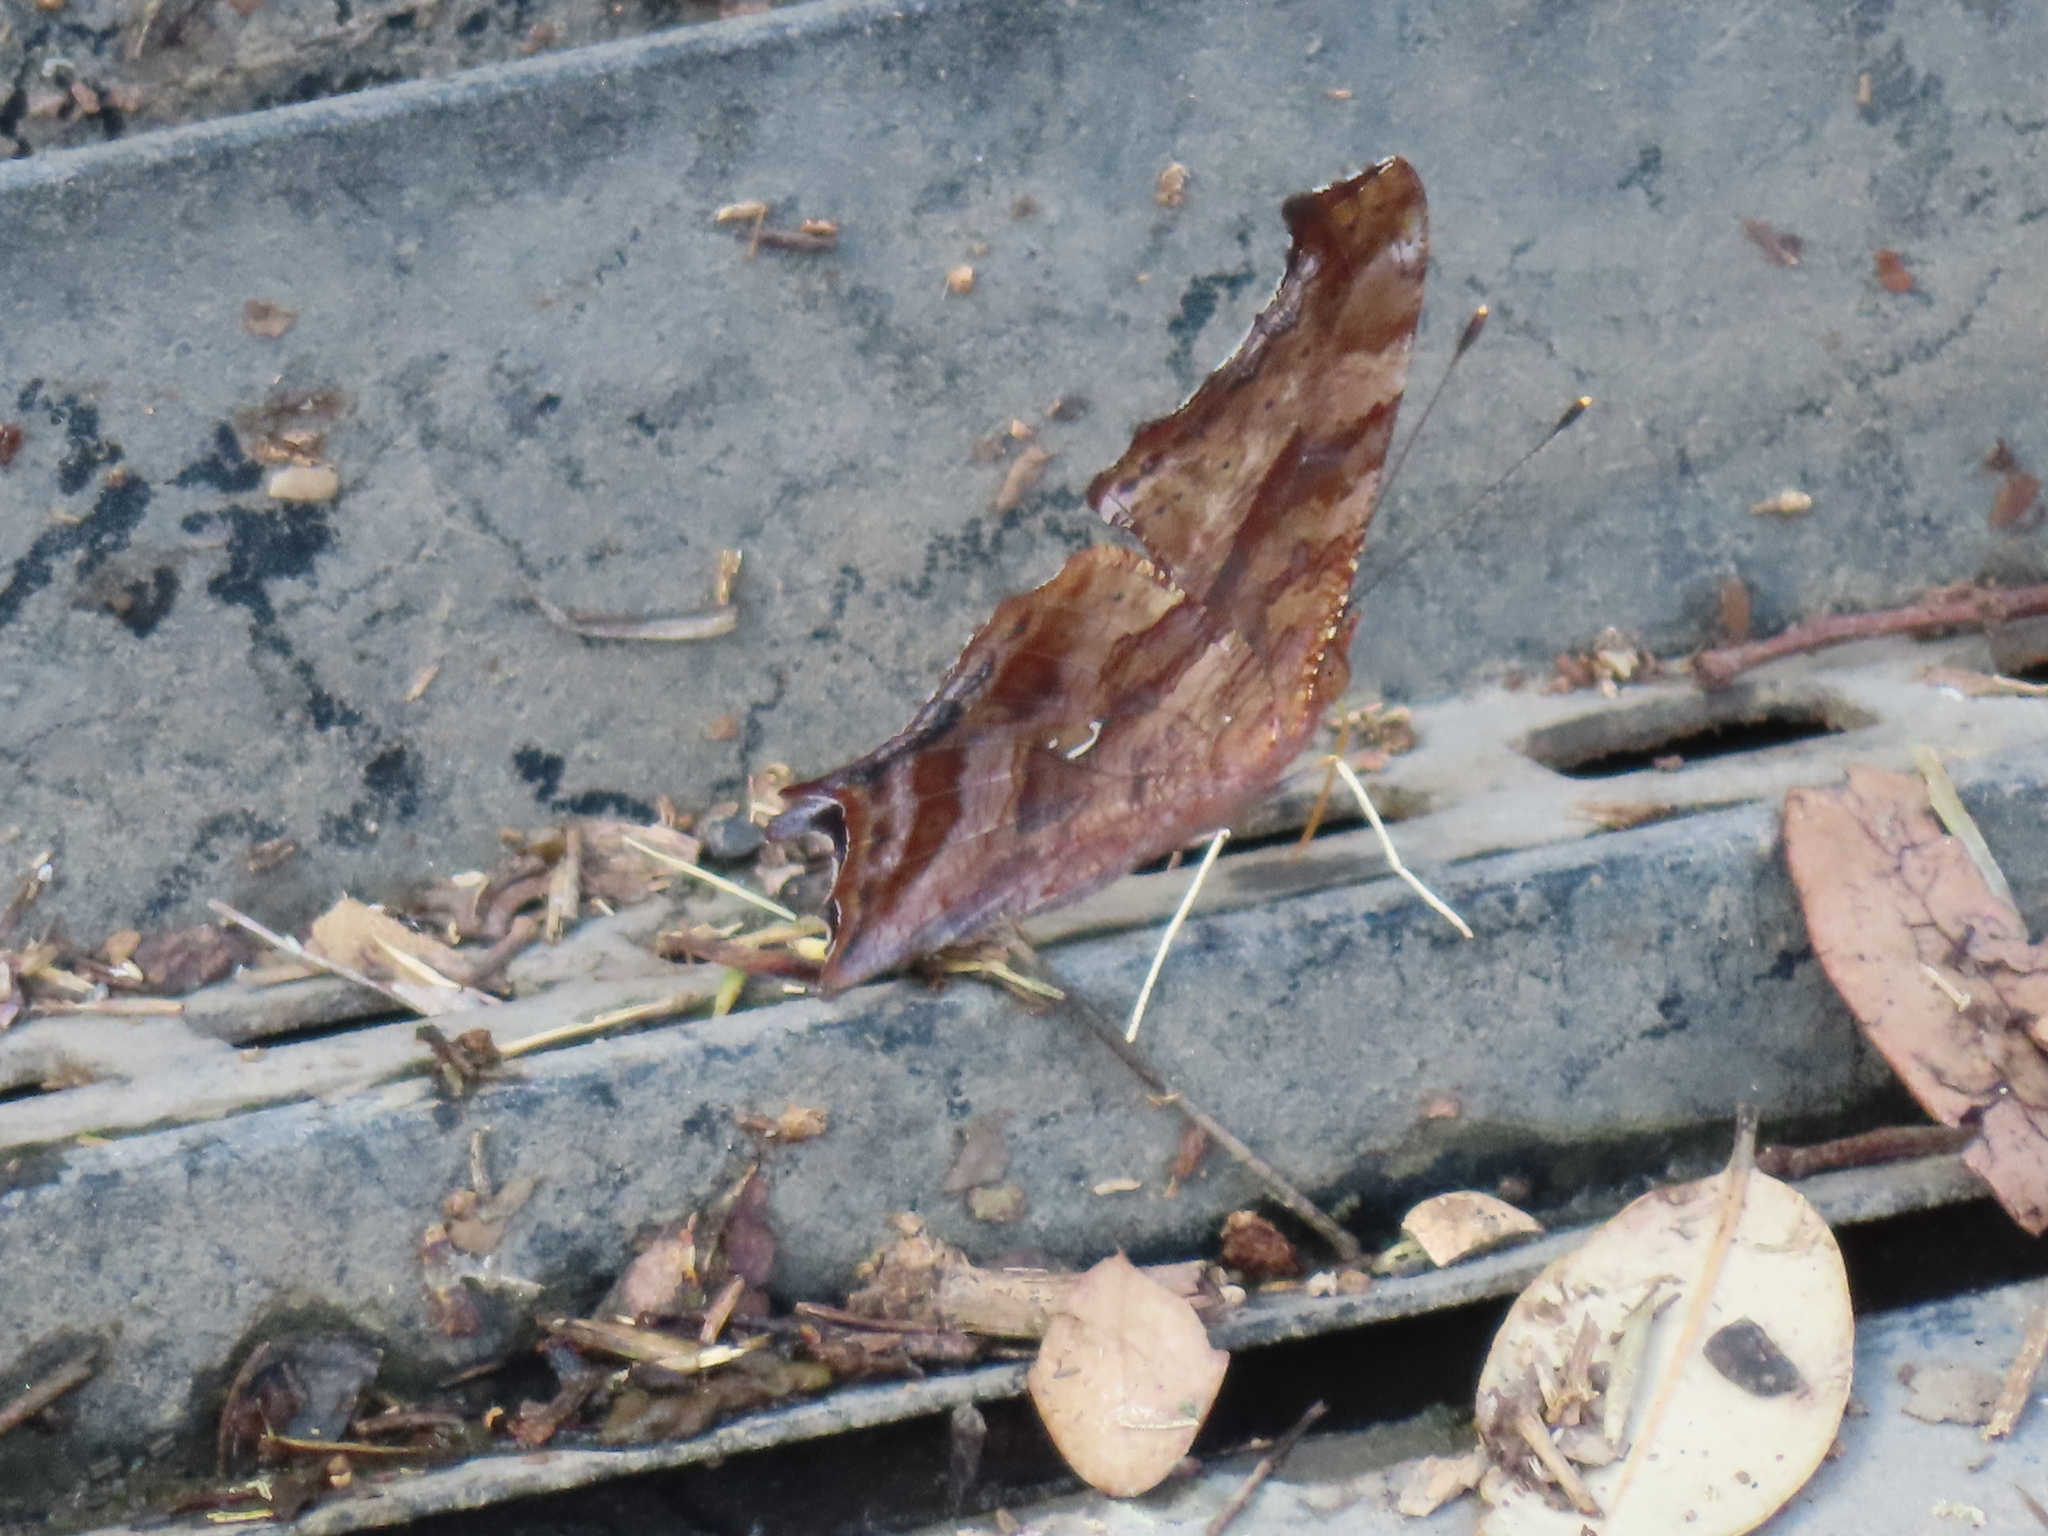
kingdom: Animalia
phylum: Arthropoda
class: Insecta
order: Lepidoptera
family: Nymphalidae
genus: Polygonia
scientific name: Polygonia interrogationis
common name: Question mark
